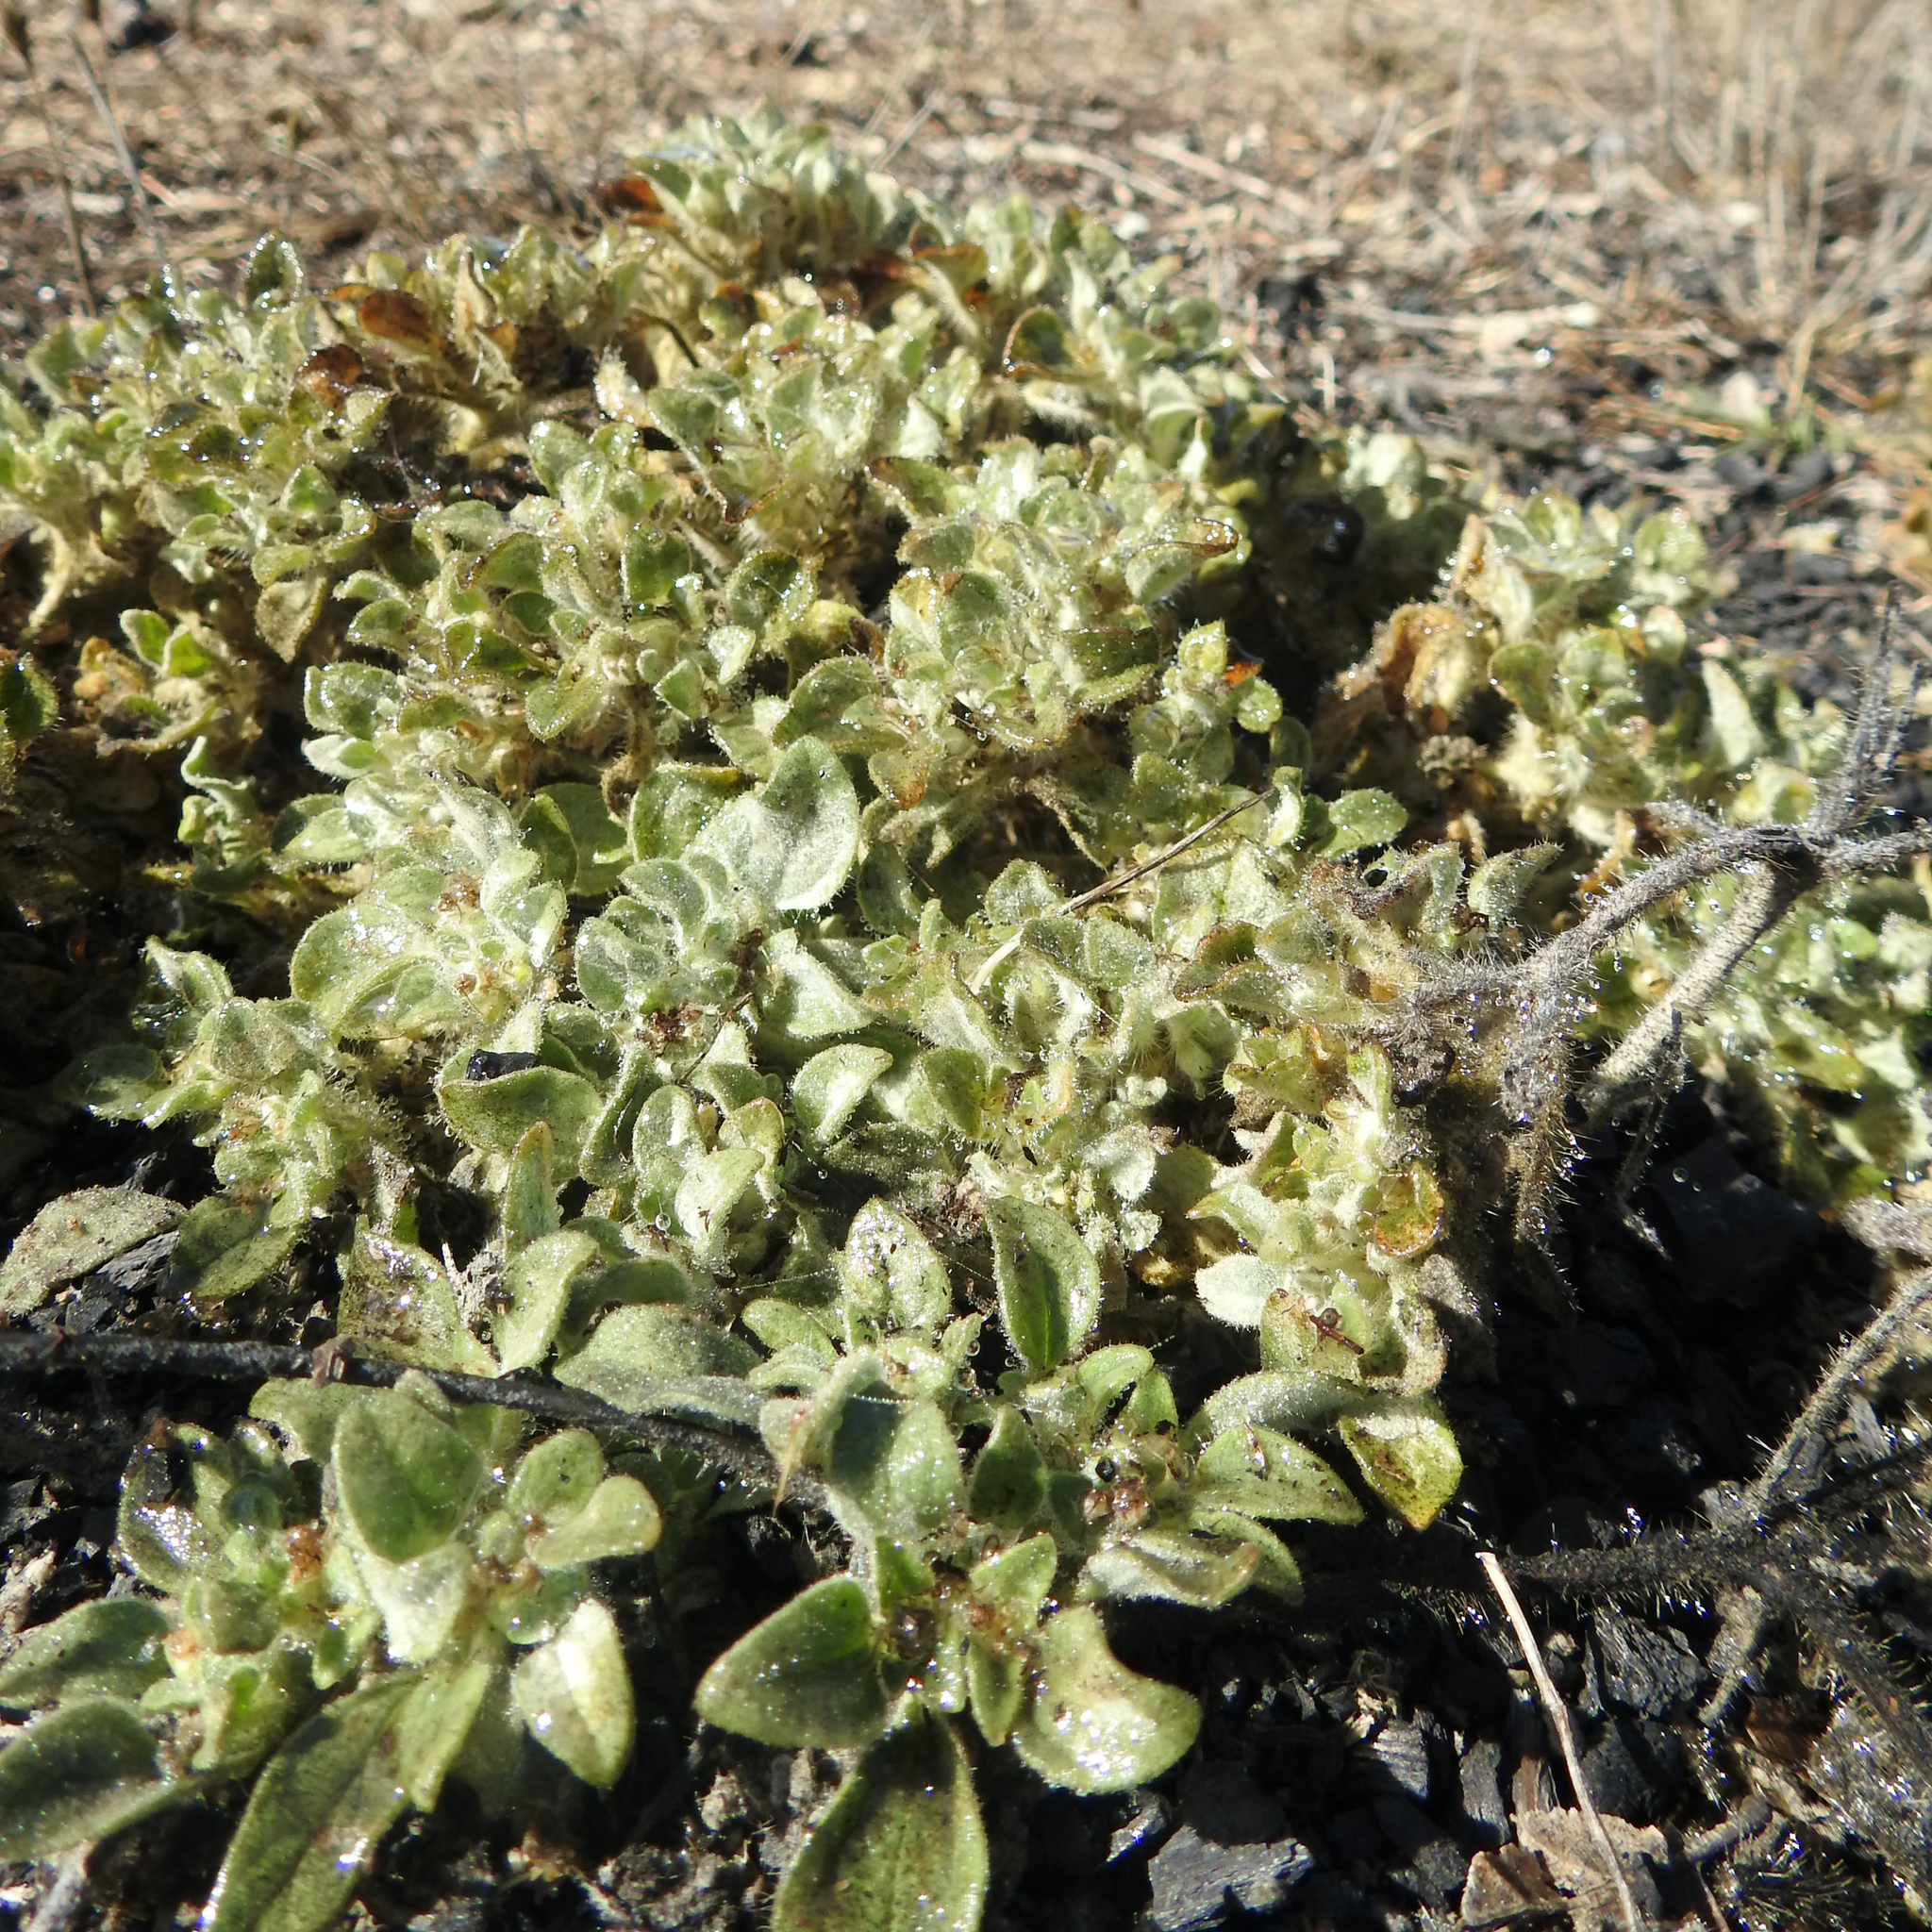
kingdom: Plantae
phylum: Tracheophyta
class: Magnoliopsida
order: Malpighiales
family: Euphorbiaceae
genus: Croton
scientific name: Croton setiger
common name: Dove weed
